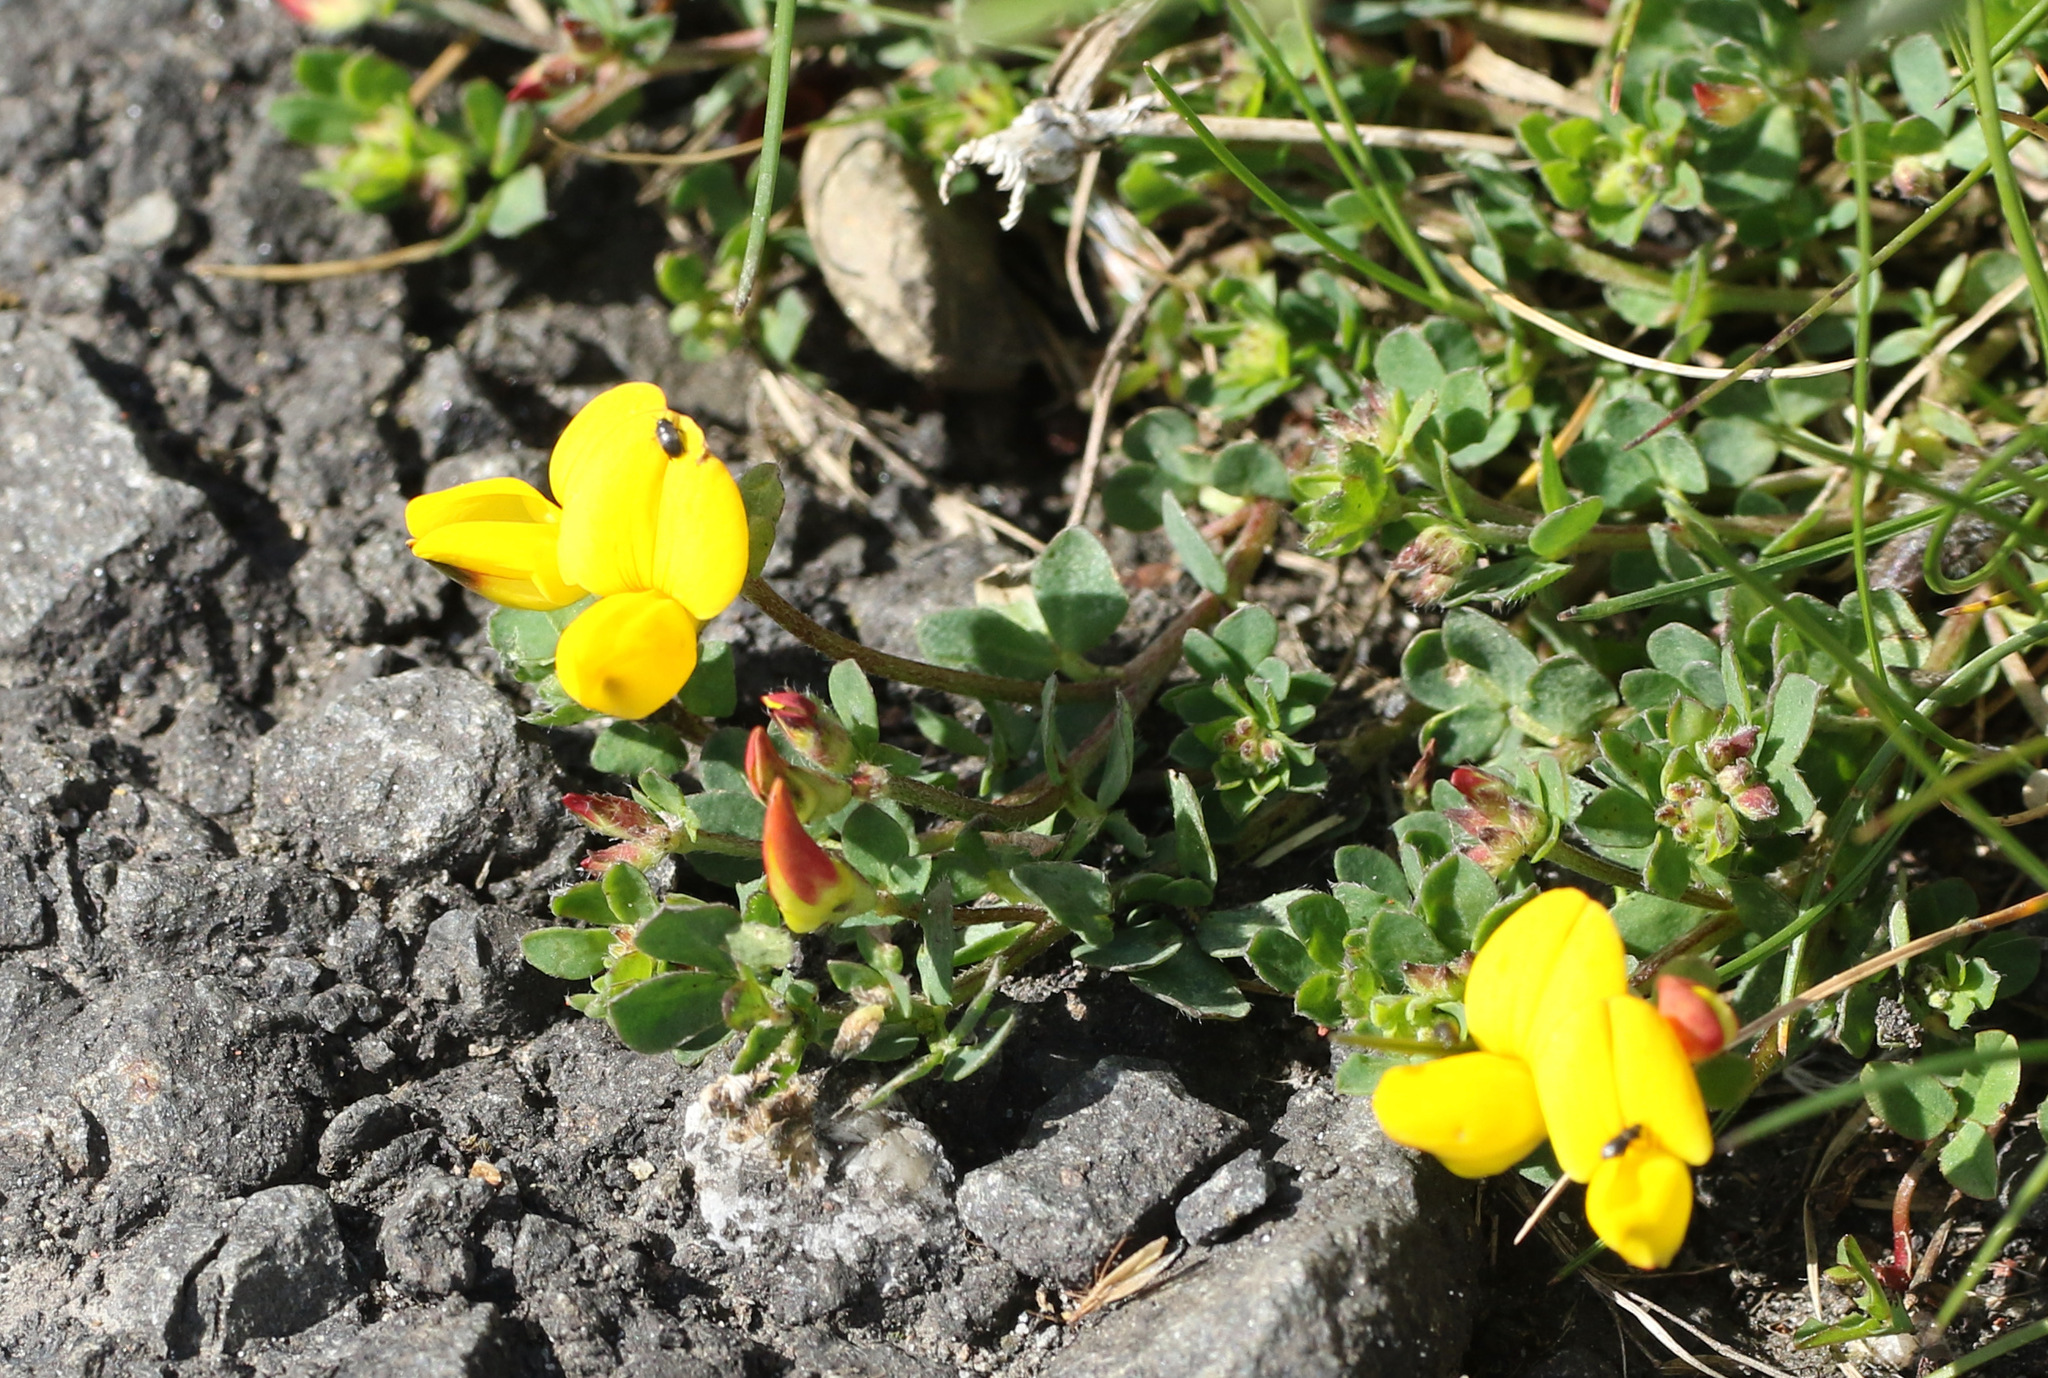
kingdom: Plantae
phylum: Tracheophyta
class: Magnoliopsida
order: Fabales
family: Fabaceae
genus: Lotus
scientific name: Lotus corniculatus
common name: Common bird's-foot-trefoil
